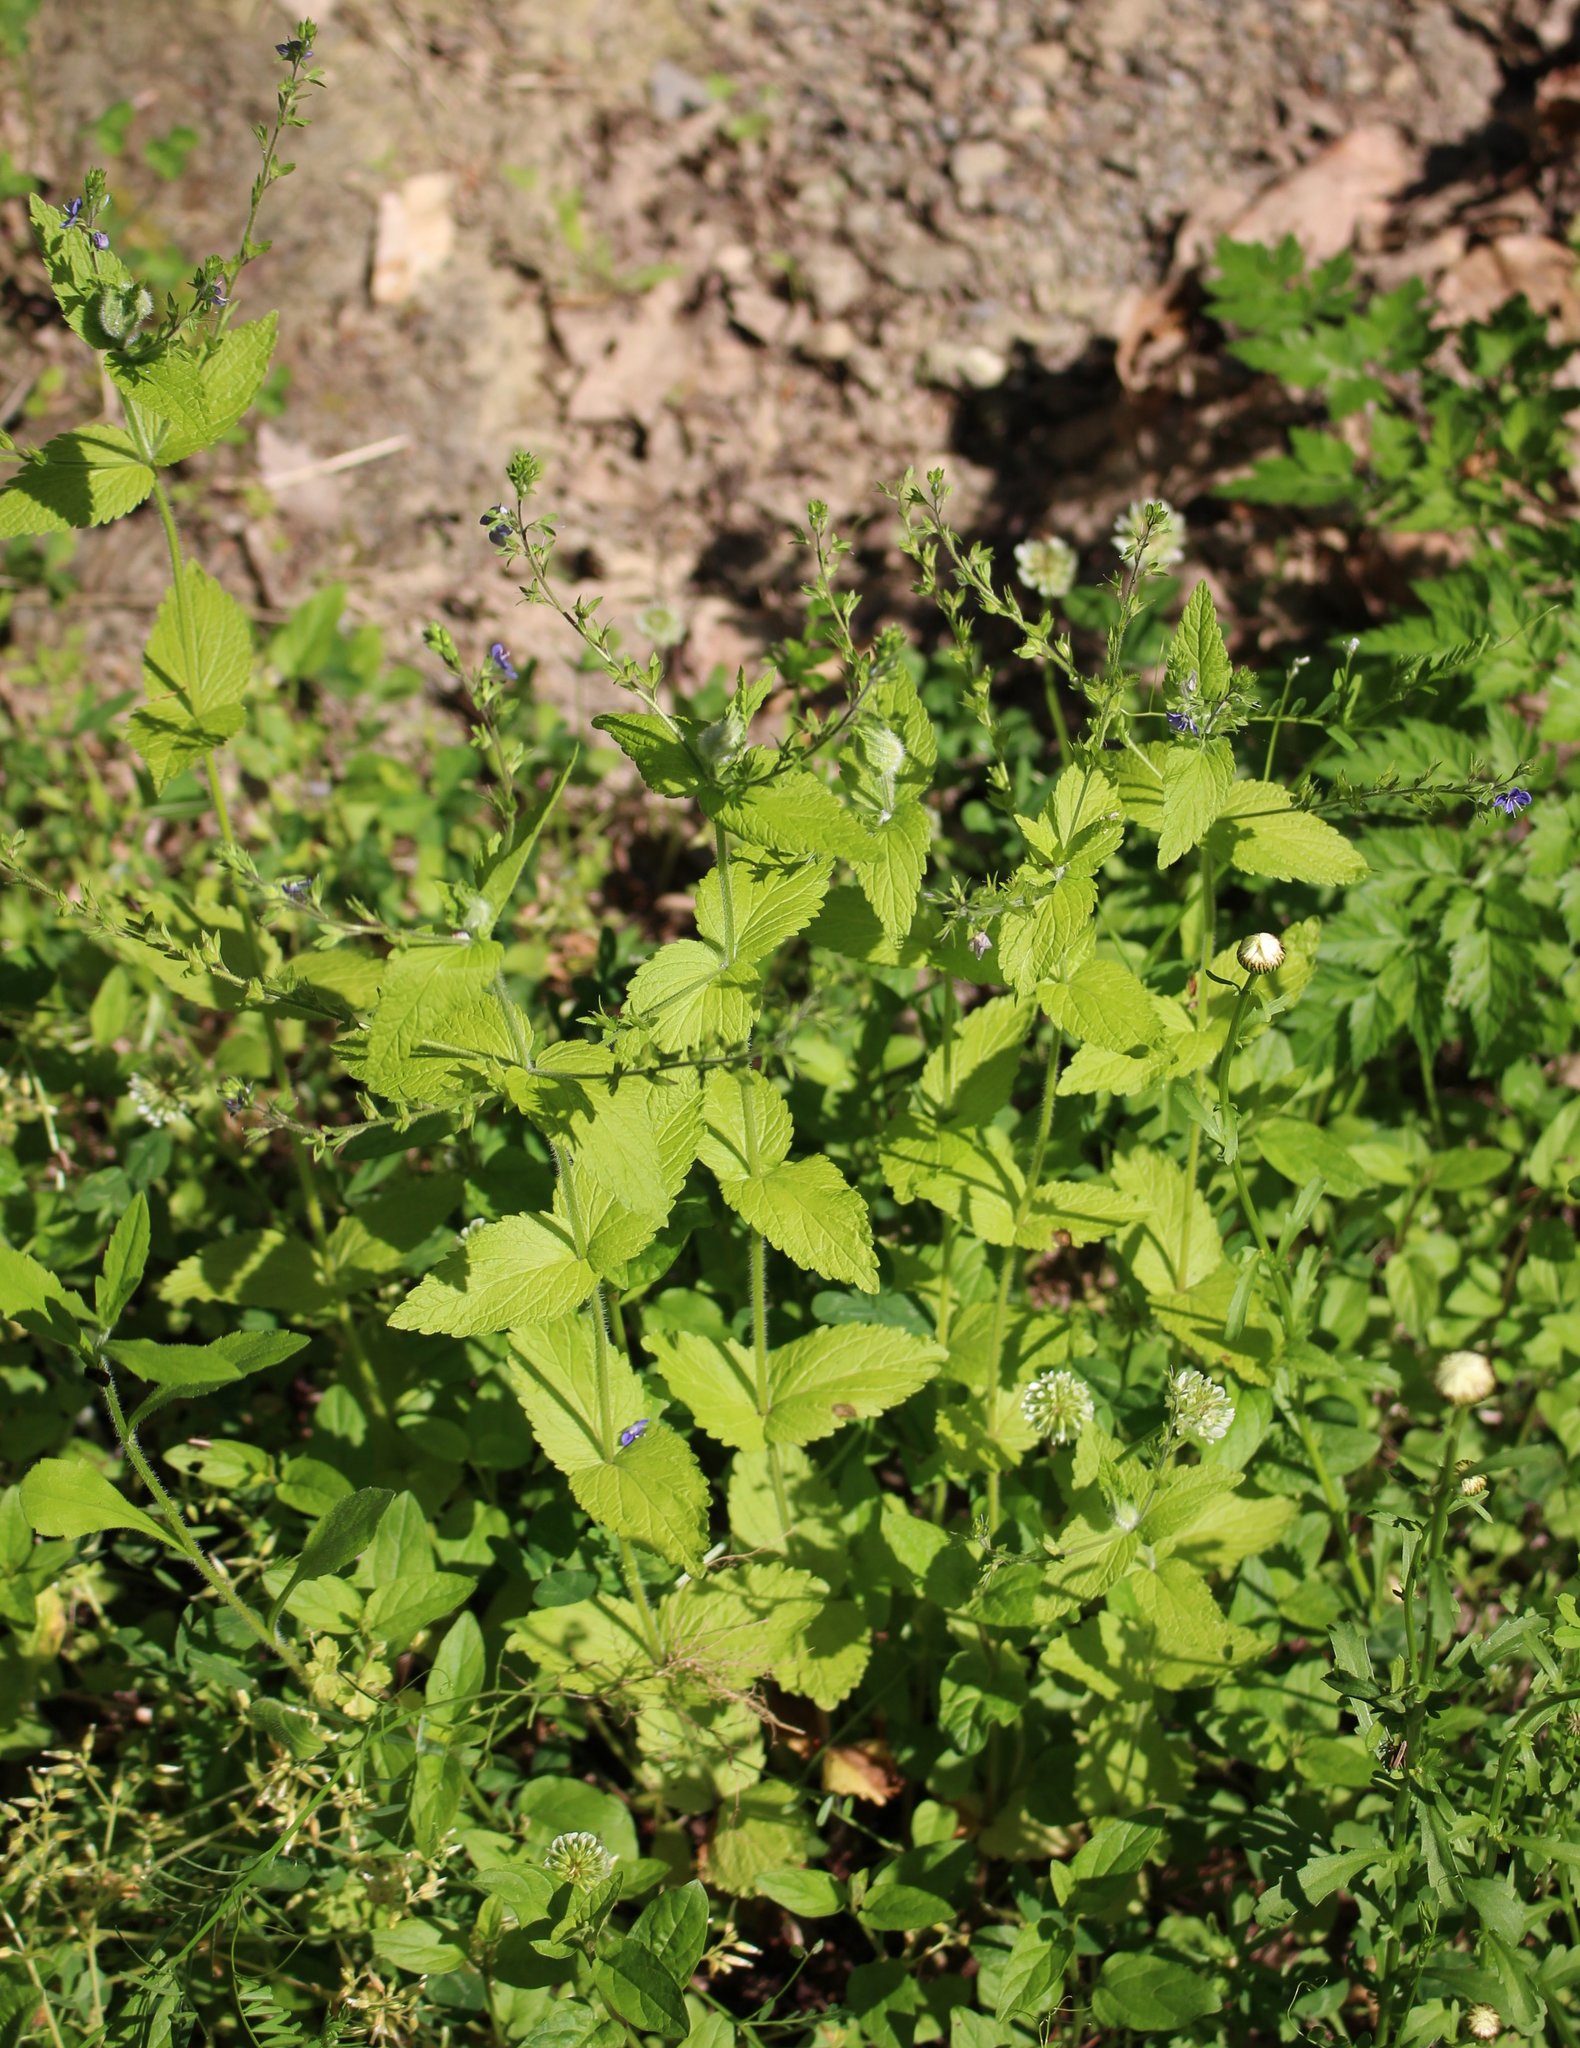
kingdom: Plantae
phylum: Tracheophyta
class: Magnoliopsida
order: Lamiales
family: Plantaginaceae
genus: Veronica
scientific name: Veronica magna
